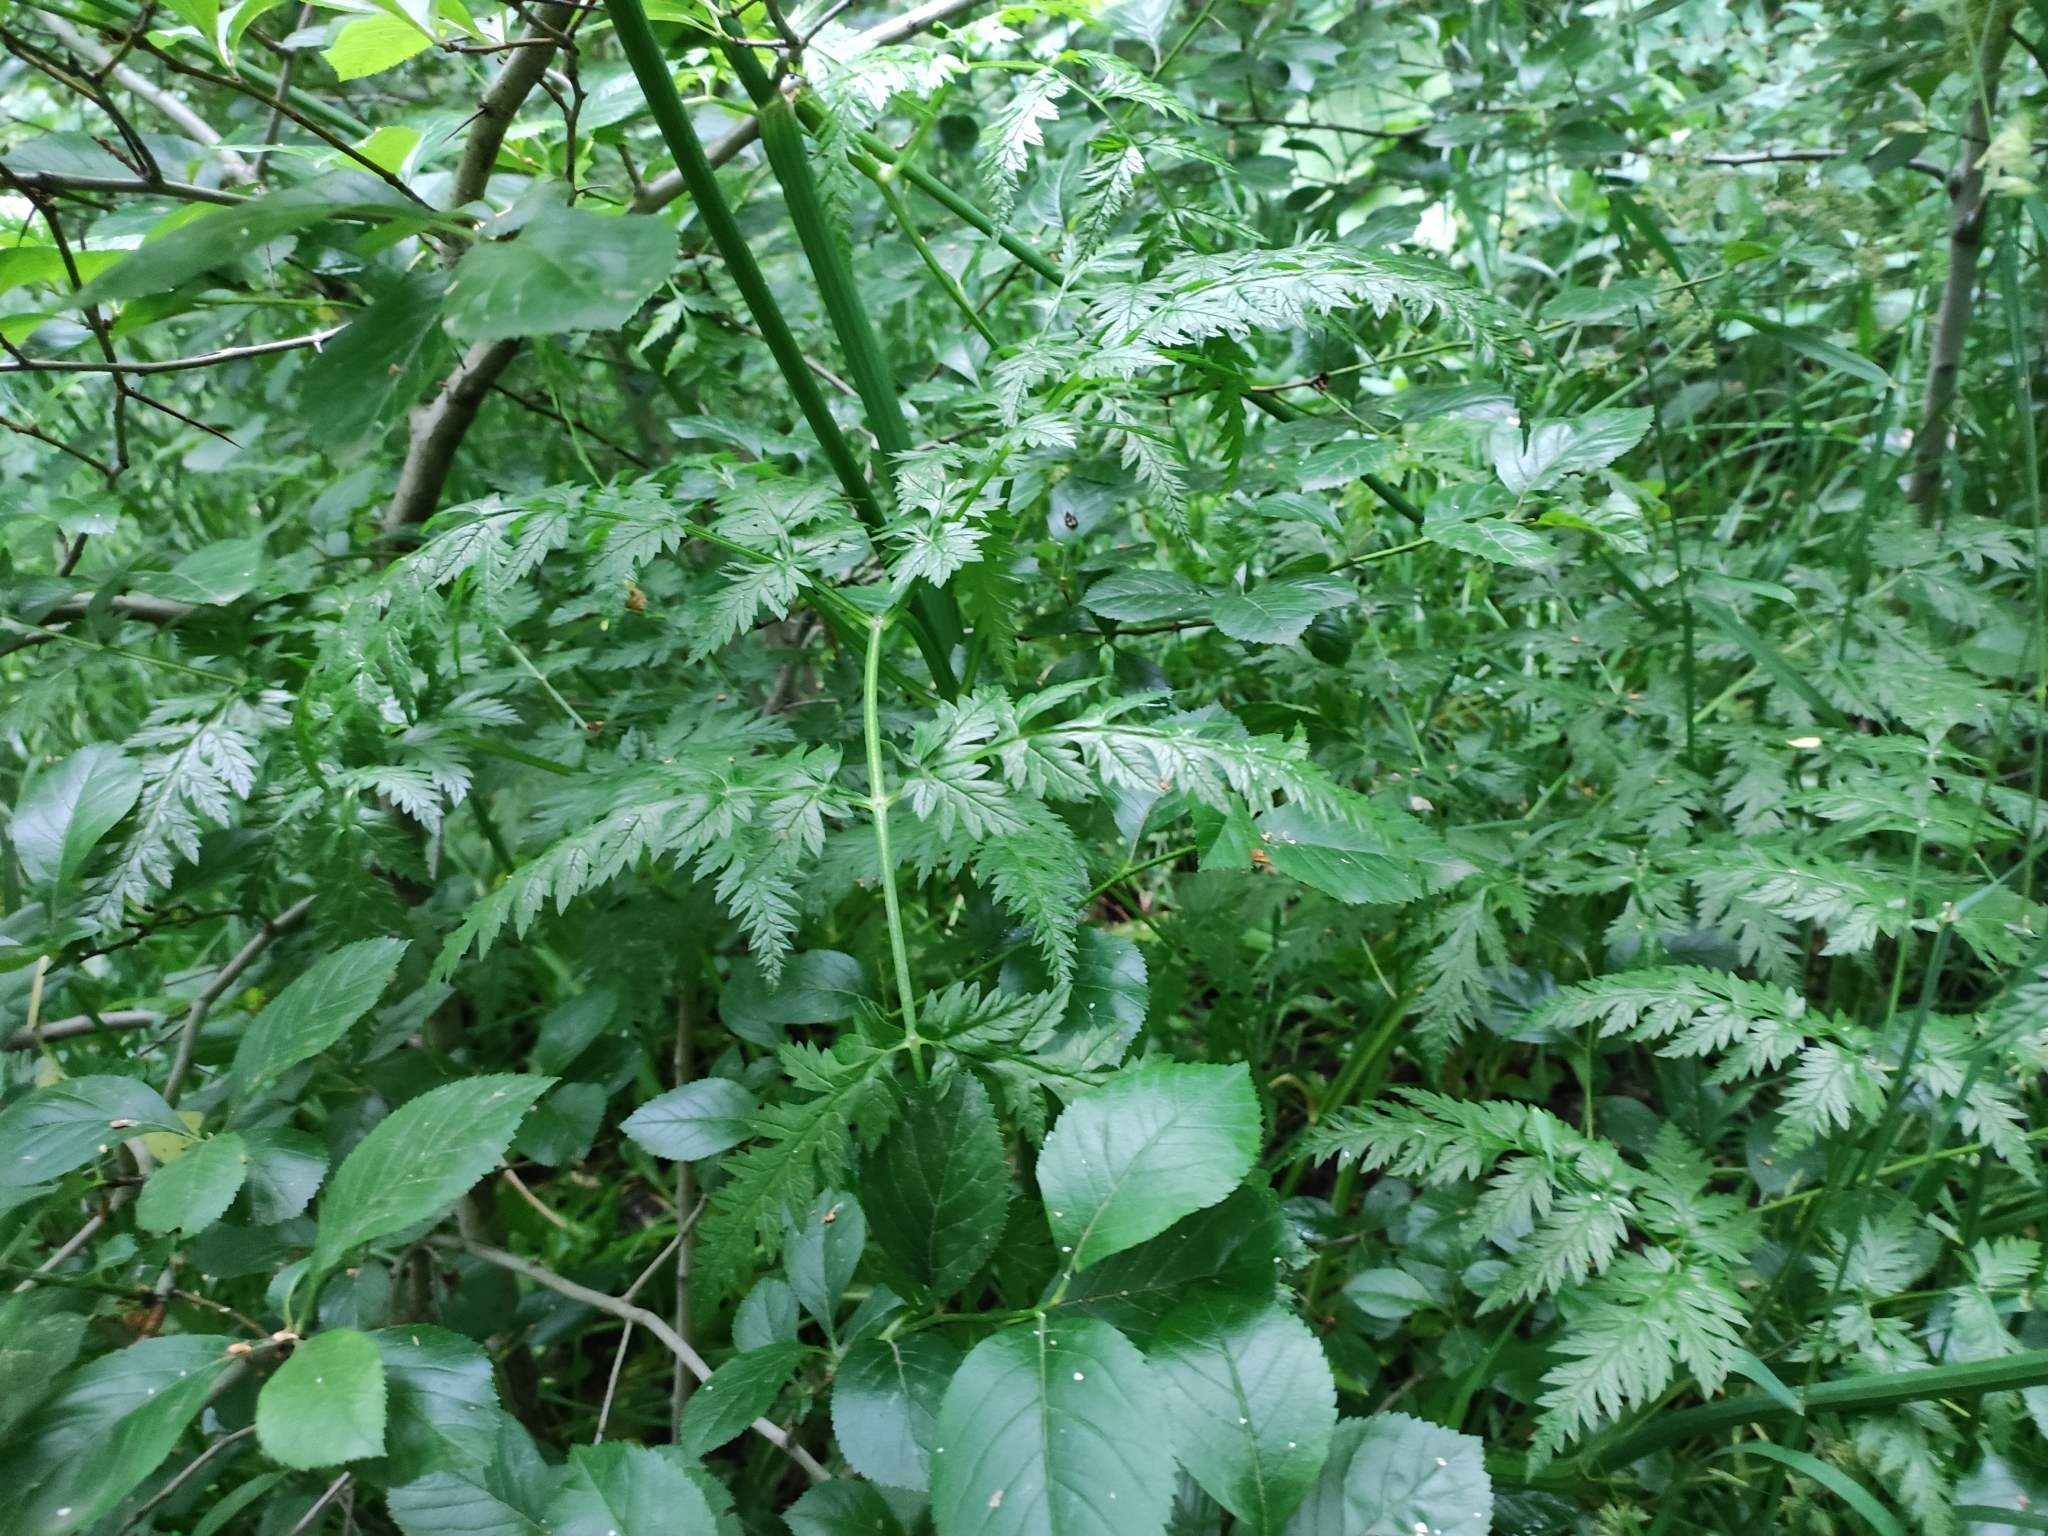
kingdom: Plantae
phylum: Tracheophyta
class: Magnoliopsida
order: Apiales
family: Apiaceae
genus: Anthriscus
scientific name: Anthriscus sylvestris
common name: Cow parsley
